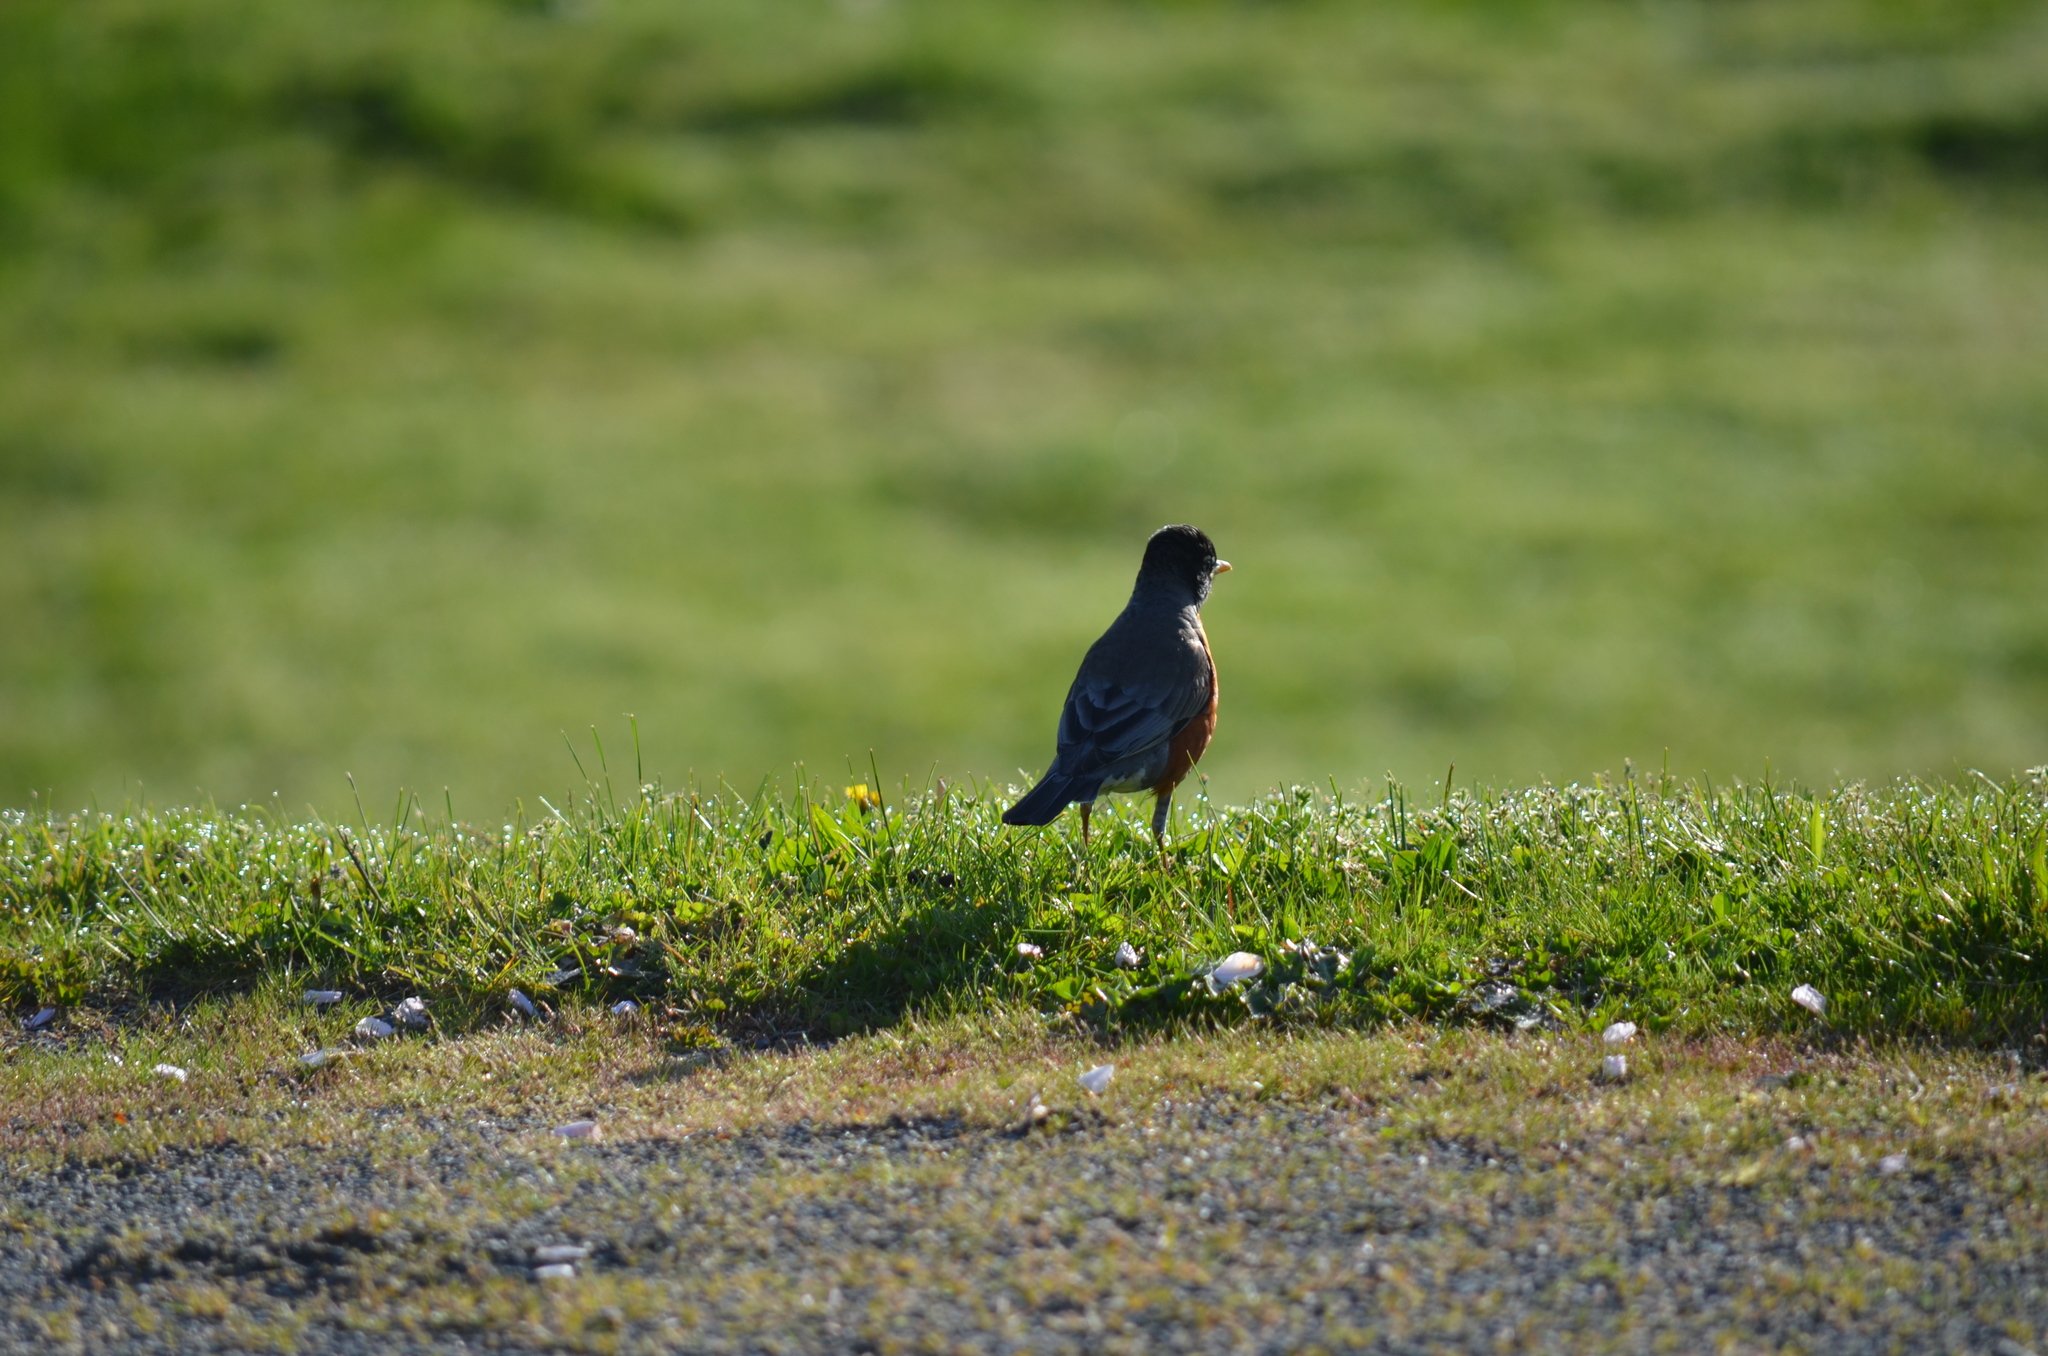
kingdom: Animalia
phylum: Chordata
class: Aves
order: Passeriformes
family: Turdidae
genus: Turdus
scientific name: Turdus migratorius
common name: American robin
